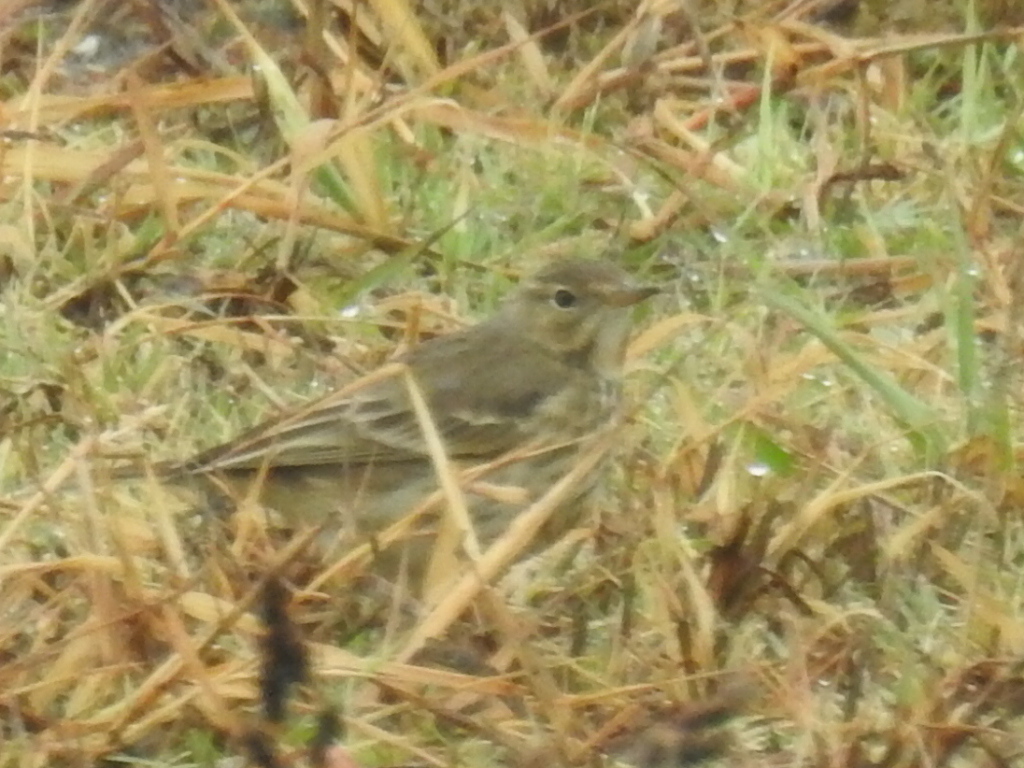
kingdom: Animalia
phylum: Chordata
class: Aves
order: Passeriformes
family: Motacillidae
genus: Anthus
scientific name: Anthus rubescens
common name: Buff-bellied pipit
